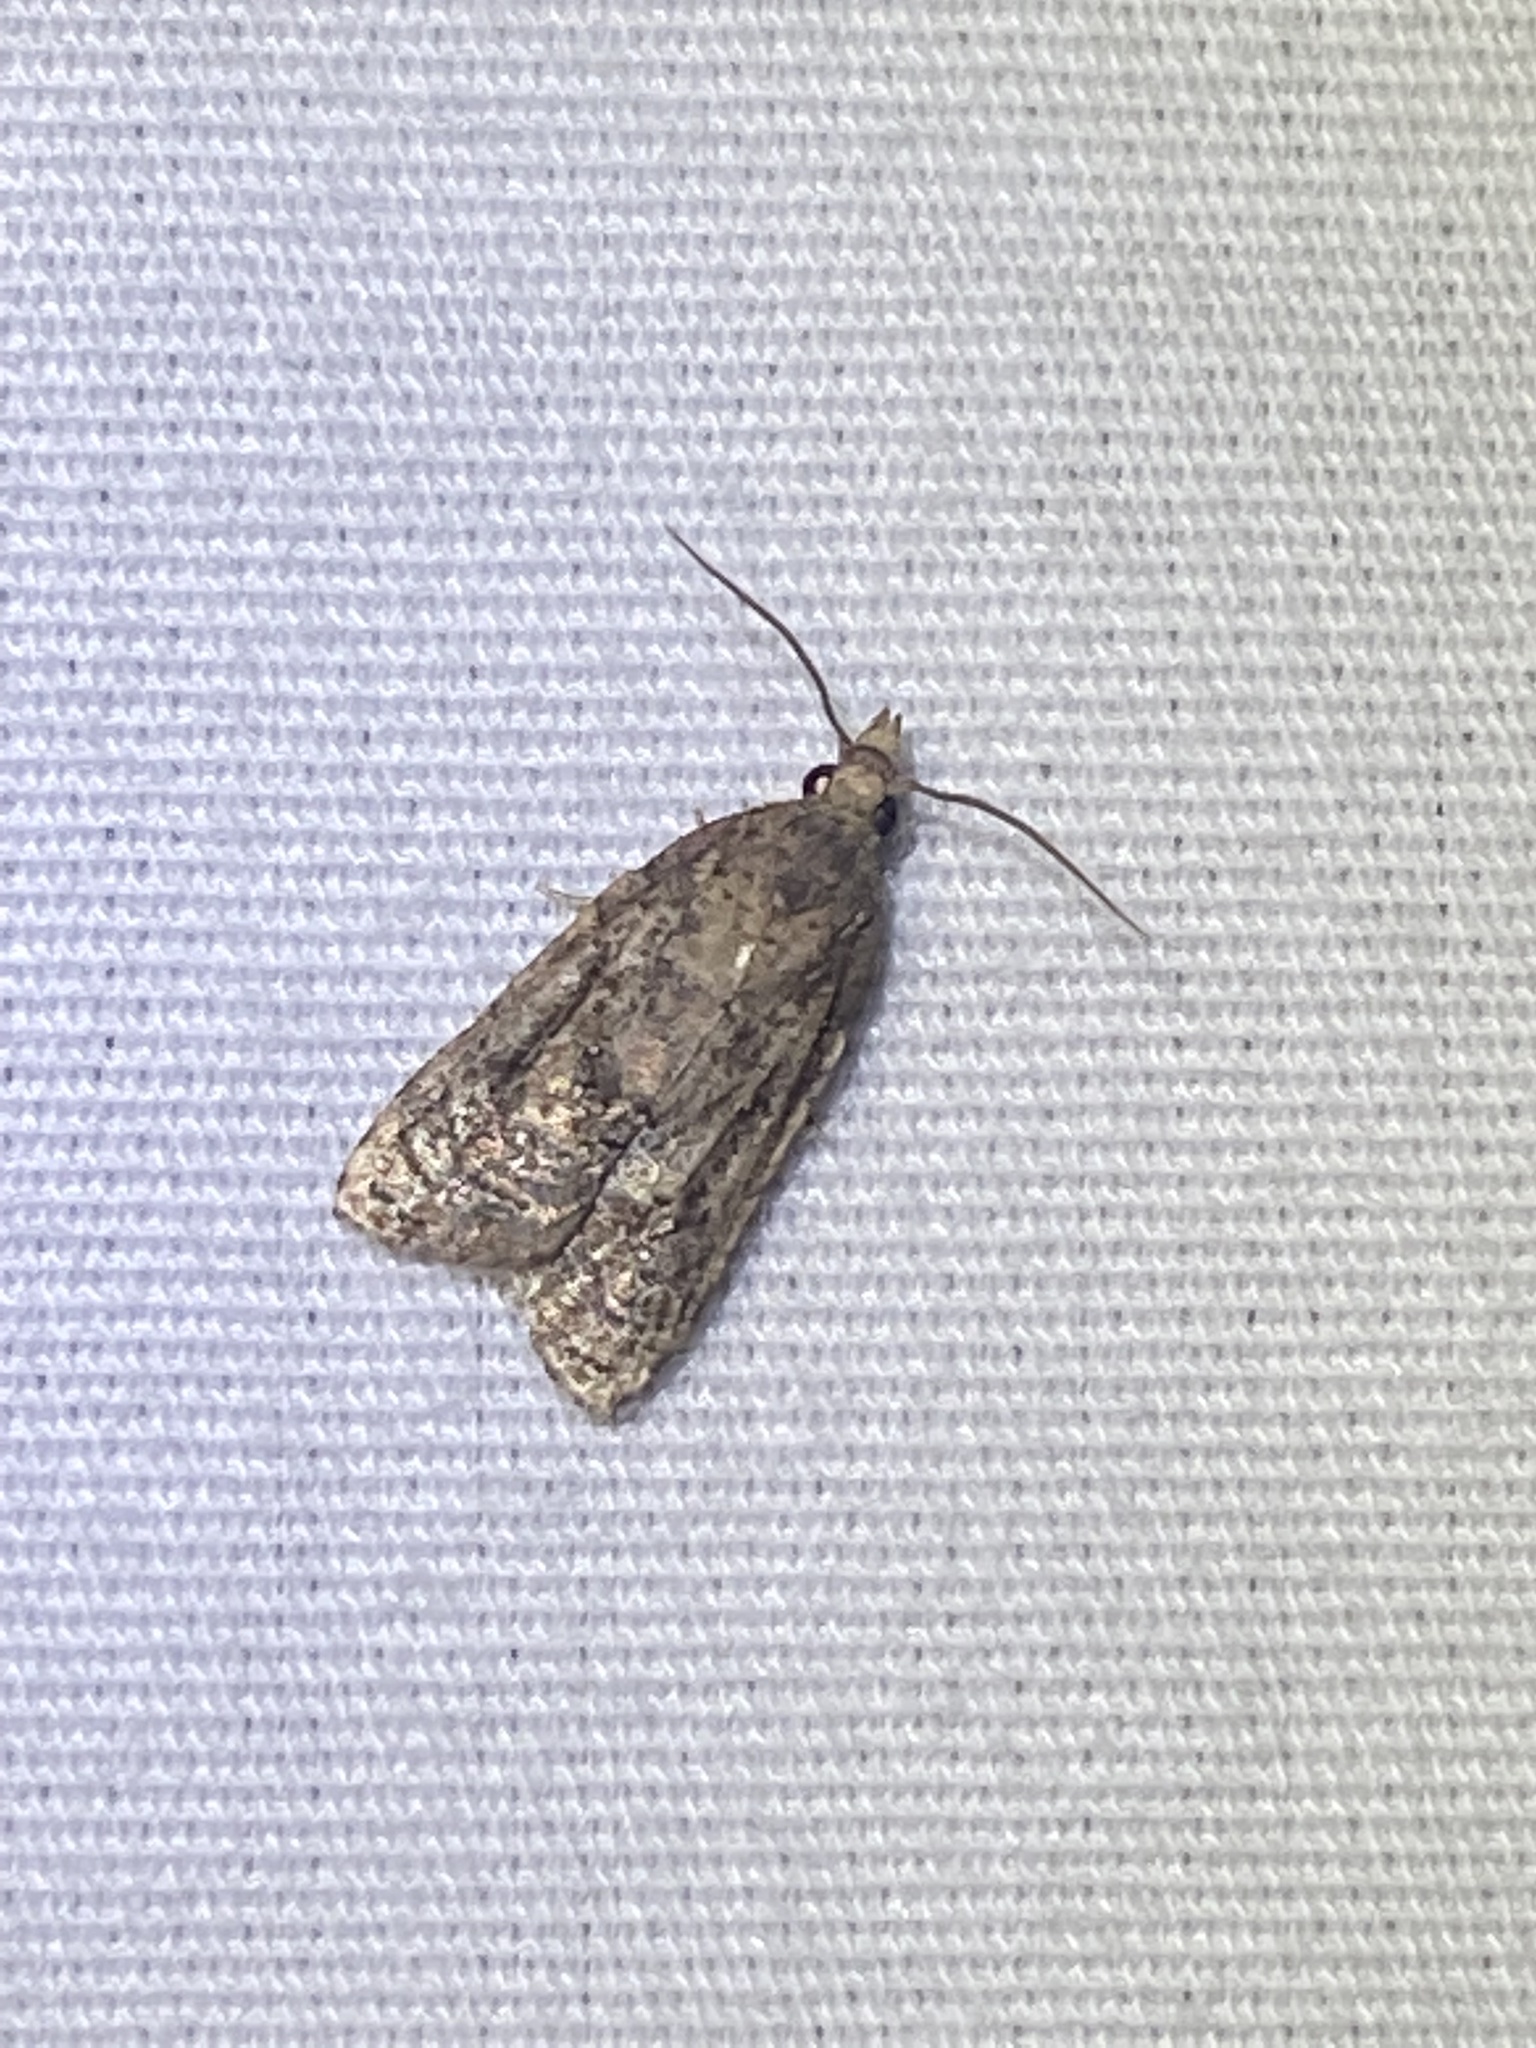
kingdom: Animalia
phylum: Arthropoda
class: Insecta
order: Lepidoptera
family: Tortricidae
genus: Platynota
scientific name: Platynota idaeusalis
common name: Tufted apple bud moth
